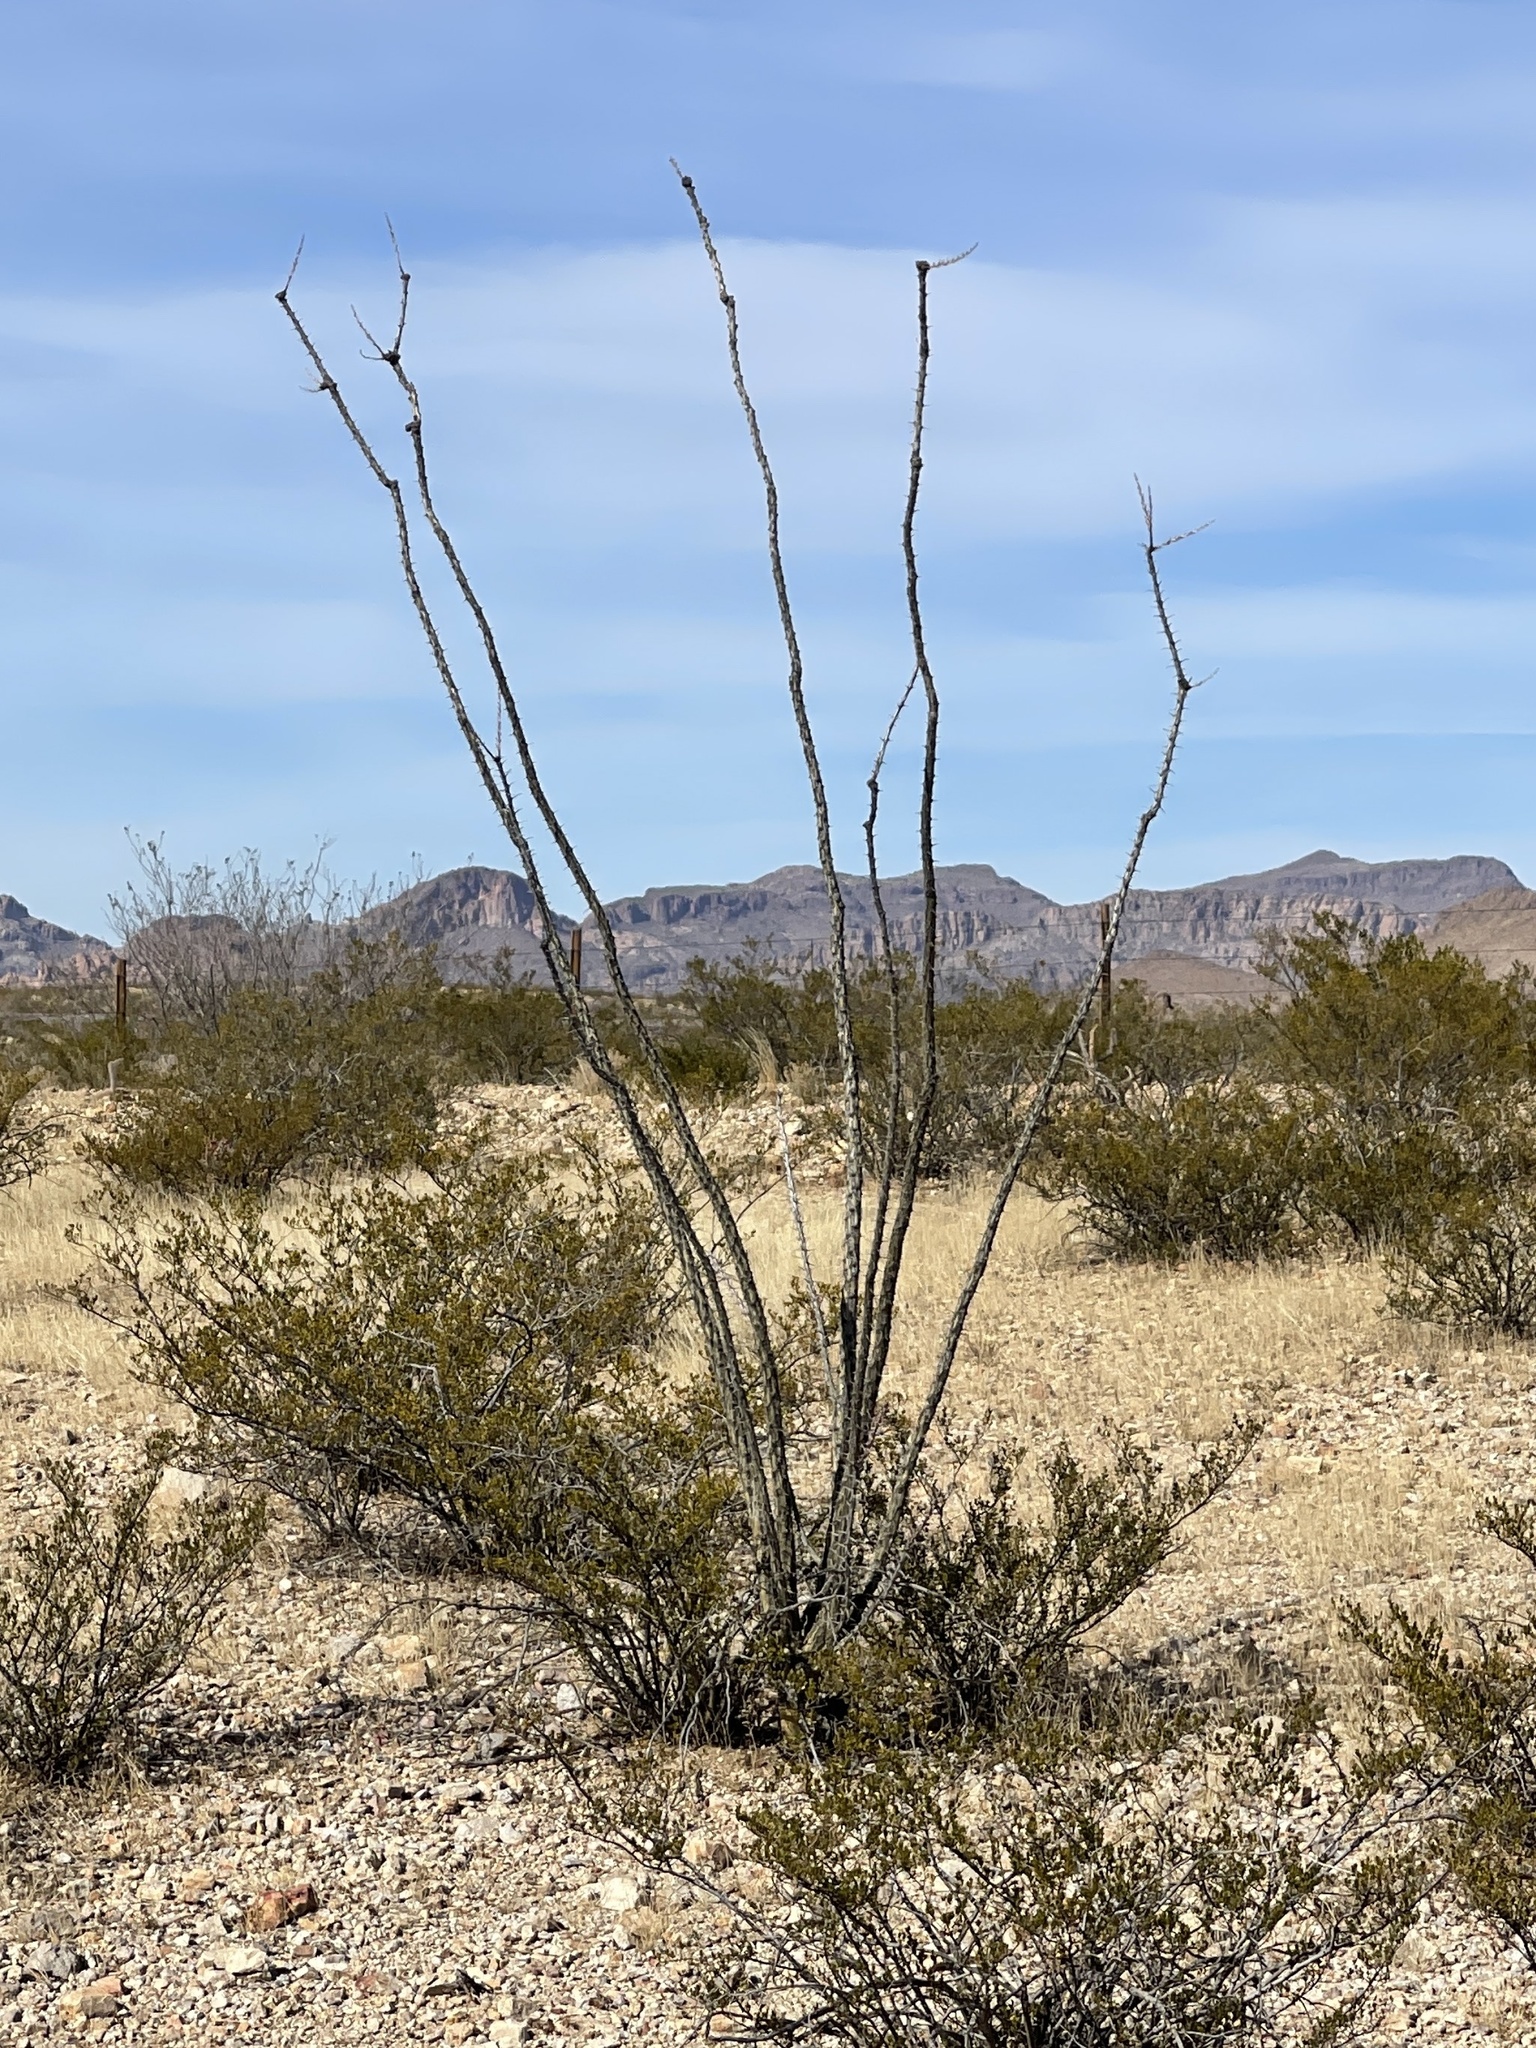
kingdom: Plantae
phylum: Tracheophyta
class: Magnoliopsida
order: Ericales
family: Fouquieriaceae
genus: Fouquieria
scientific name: Fouquieria splendens
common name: Vine-cactus
